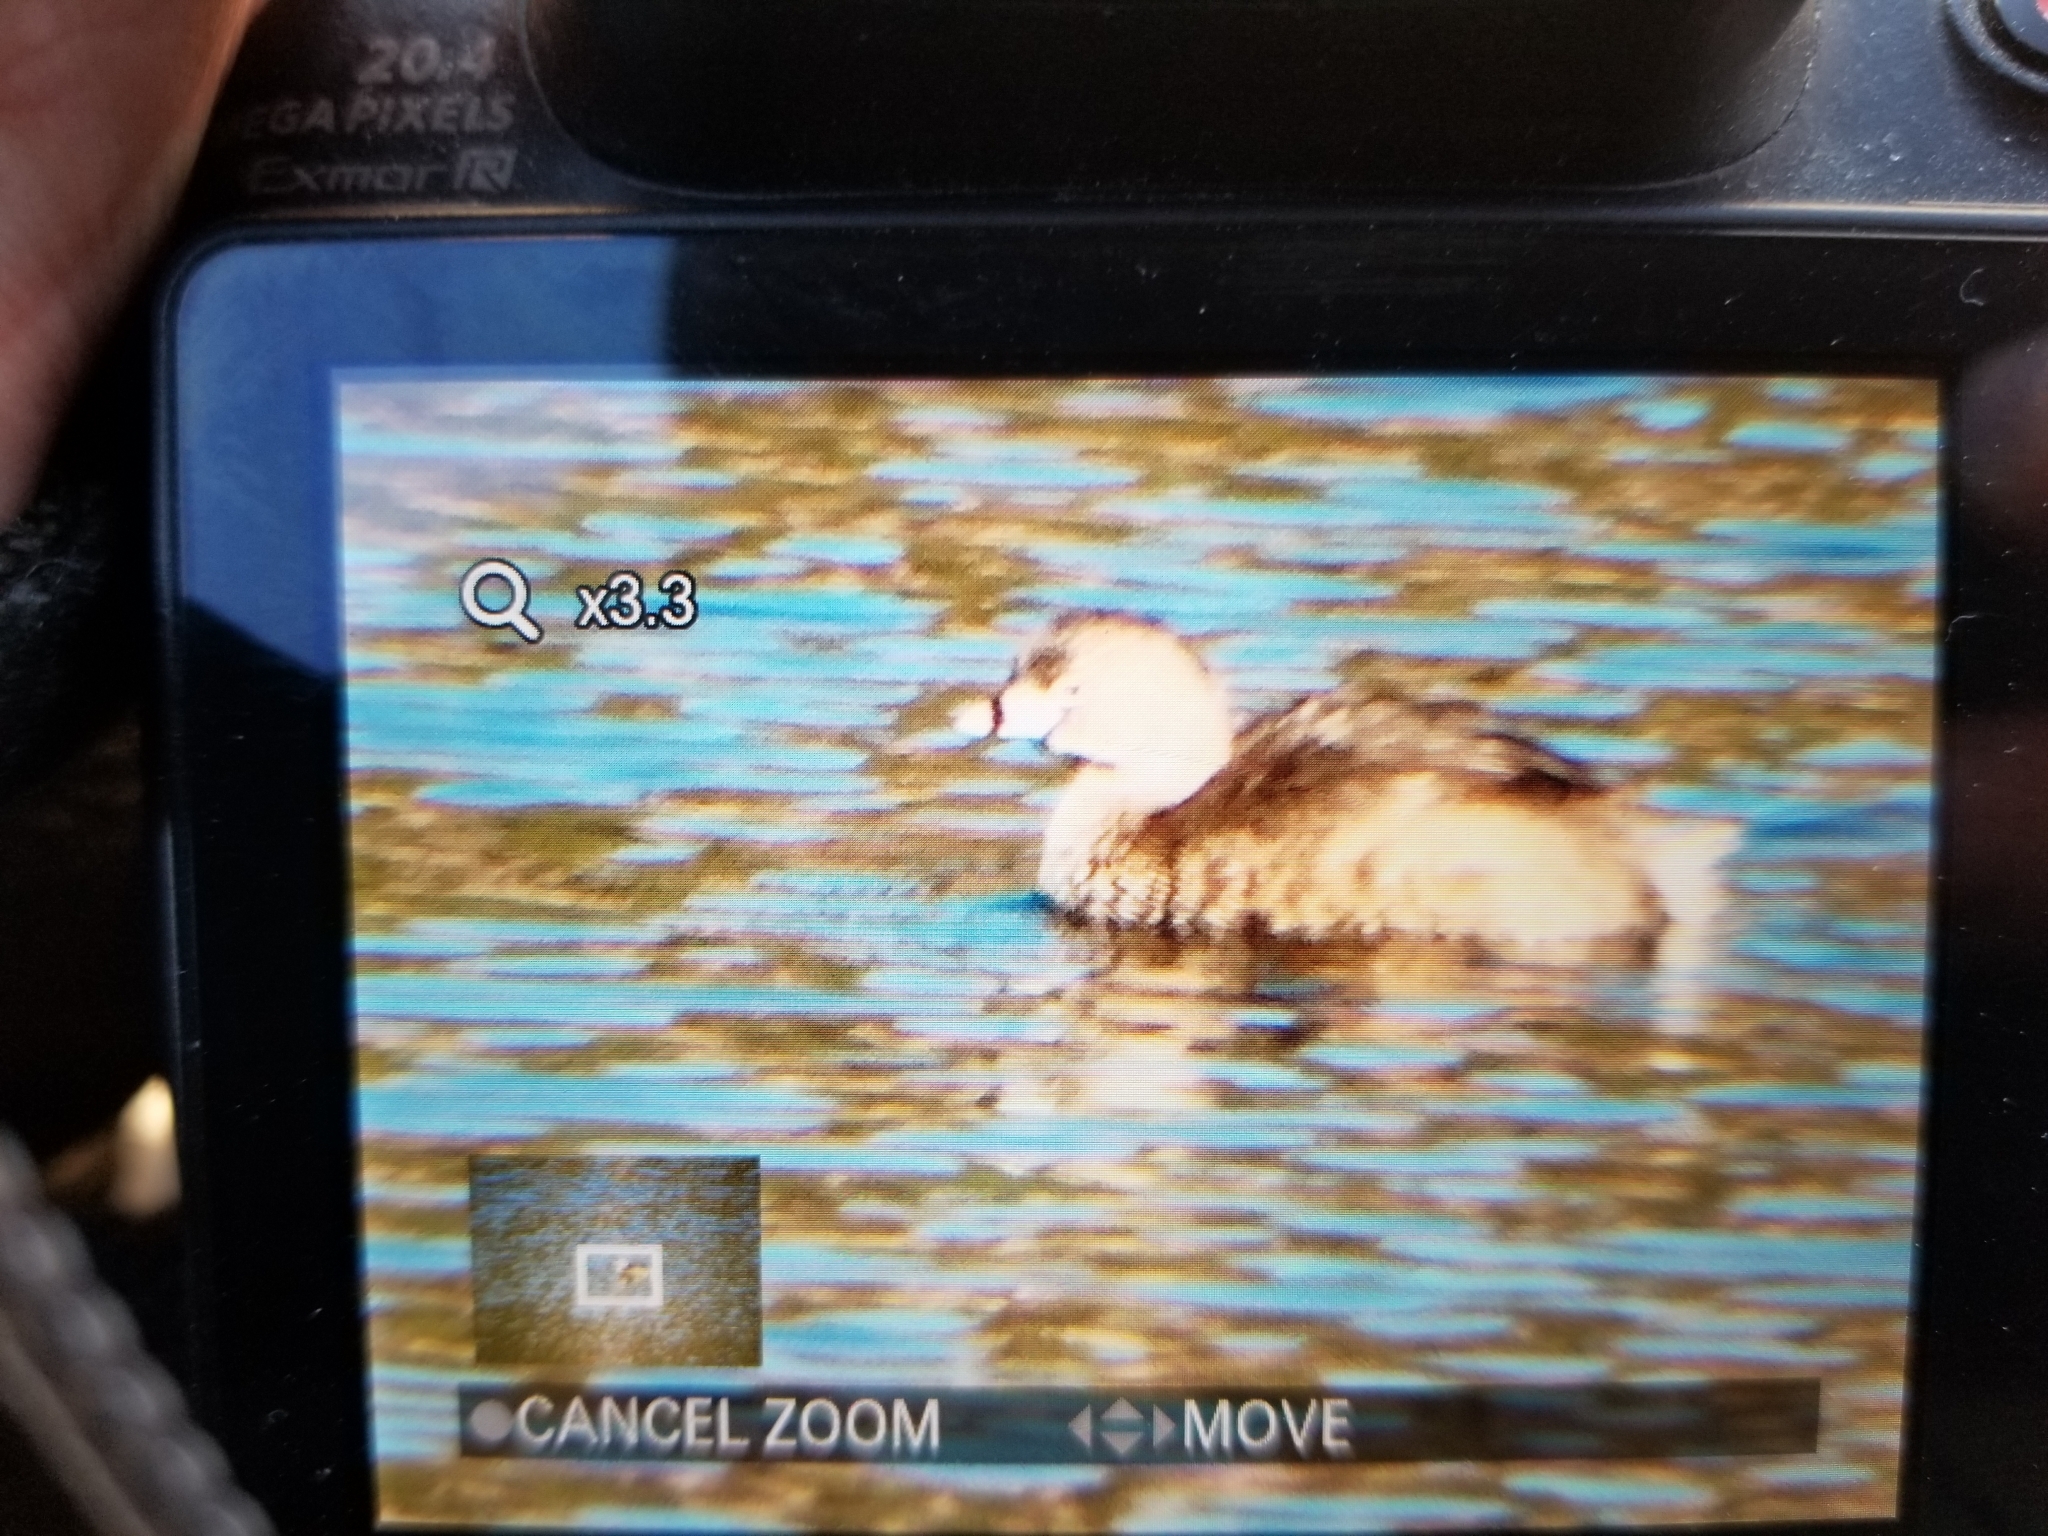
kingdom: Animalia
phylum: Chordata
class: Aves
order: Podicipediformes
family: Podicipedidae
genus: Podilymbus
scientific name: Podilymbus podiceps
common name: Pied-billed grebe
